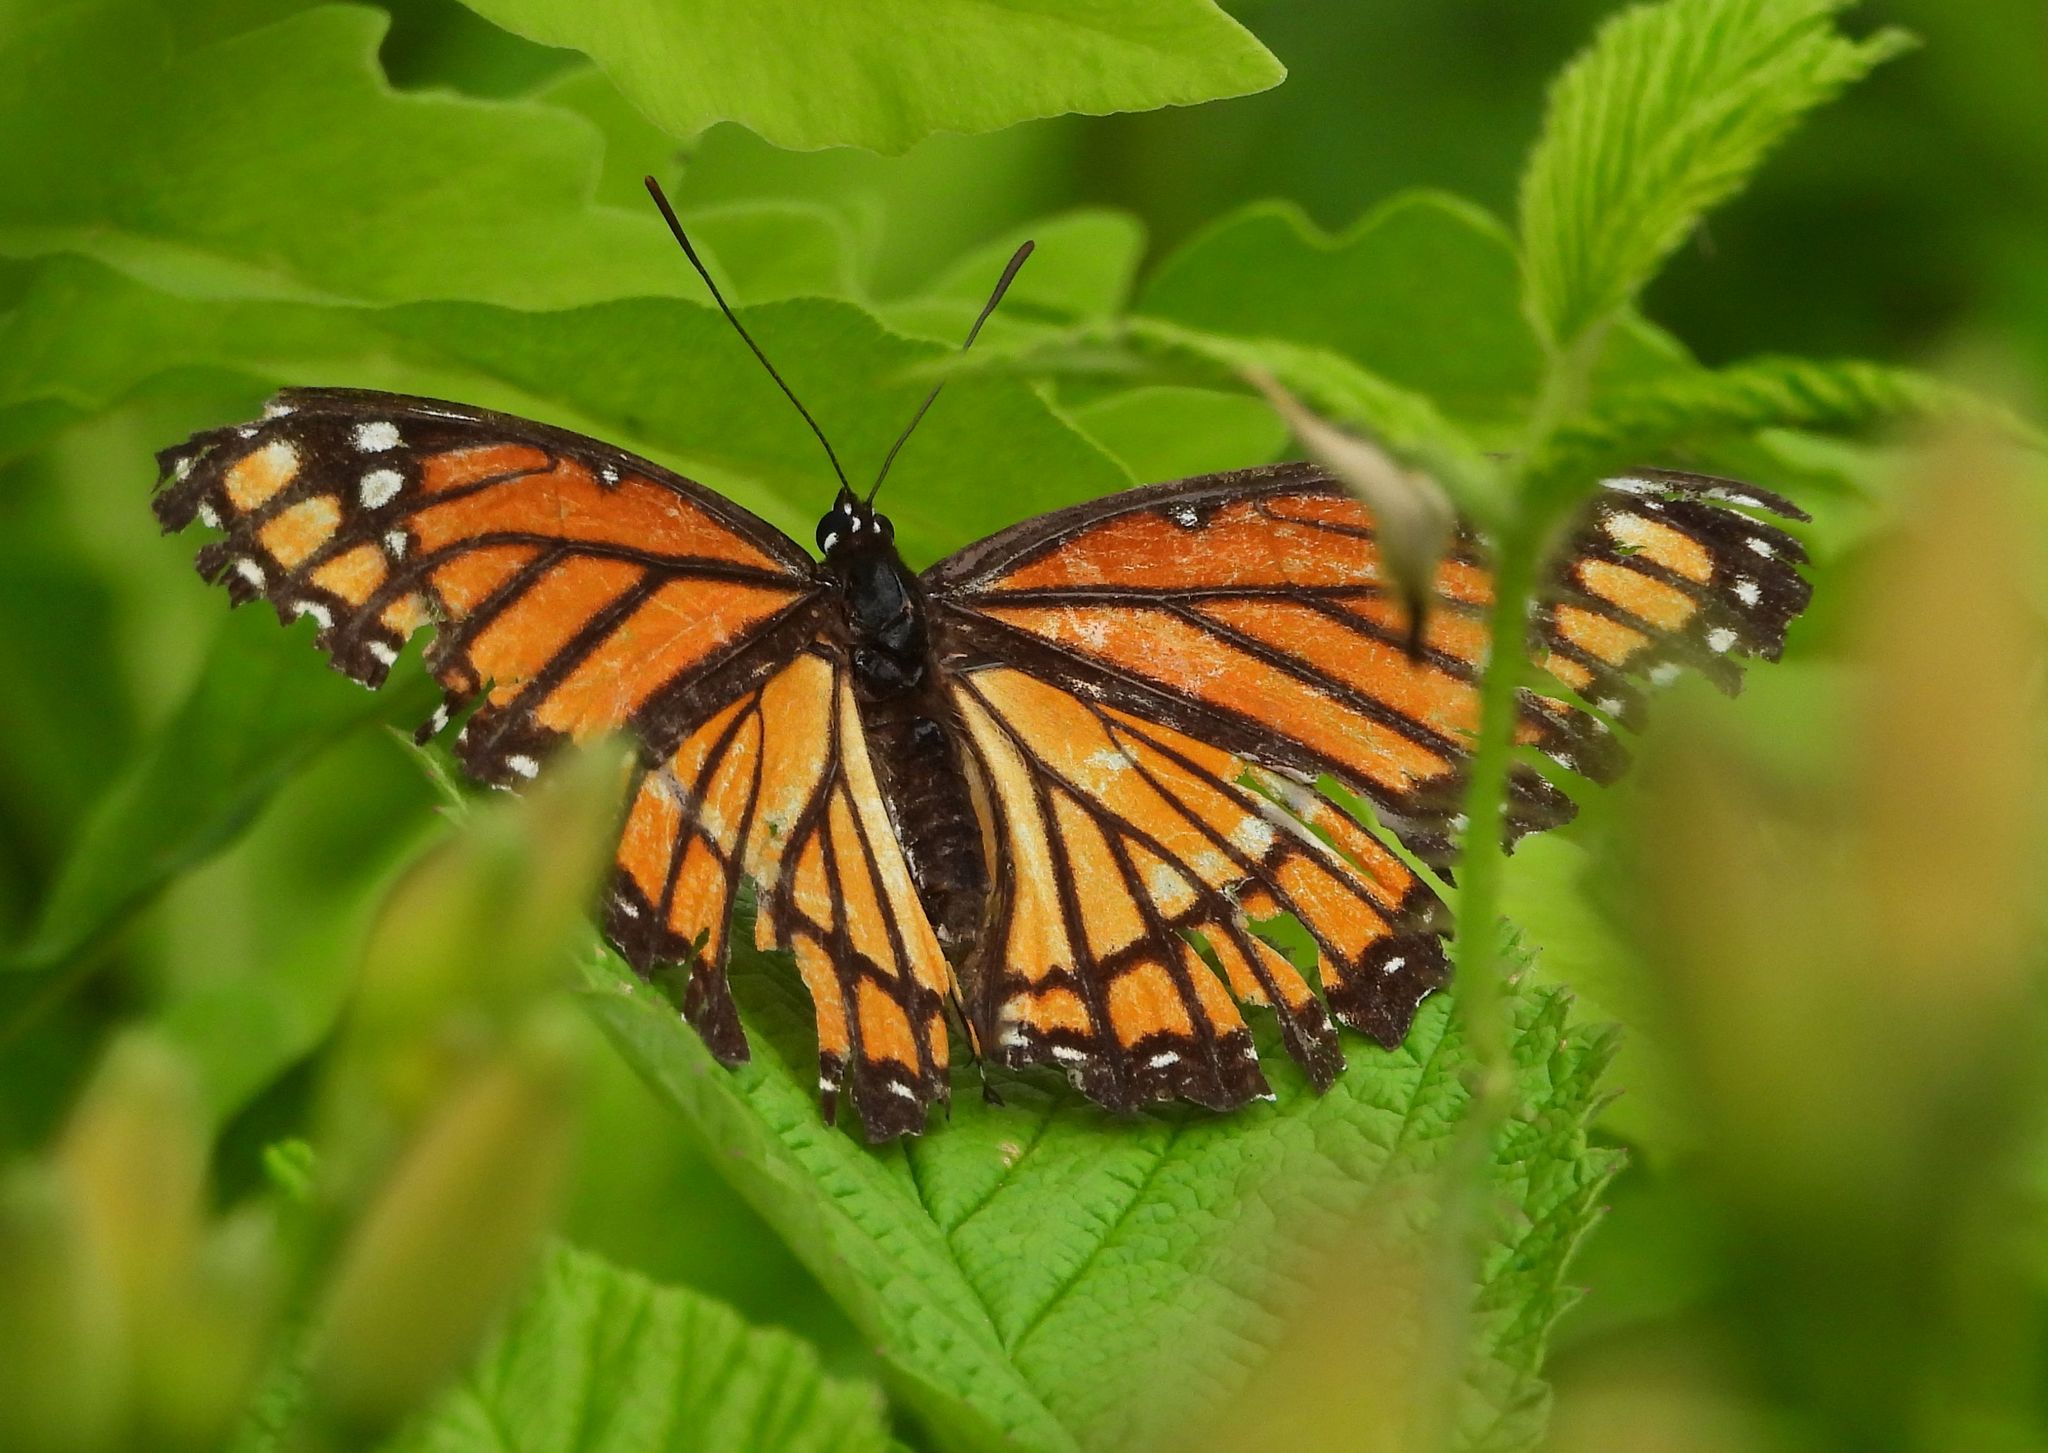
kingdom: Animalia
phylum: Arthropoda
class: Insecta
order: Lepidoptera
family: Nymphalidae
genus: Limenitis
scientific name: Limenitis archippus
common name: Viceroy
